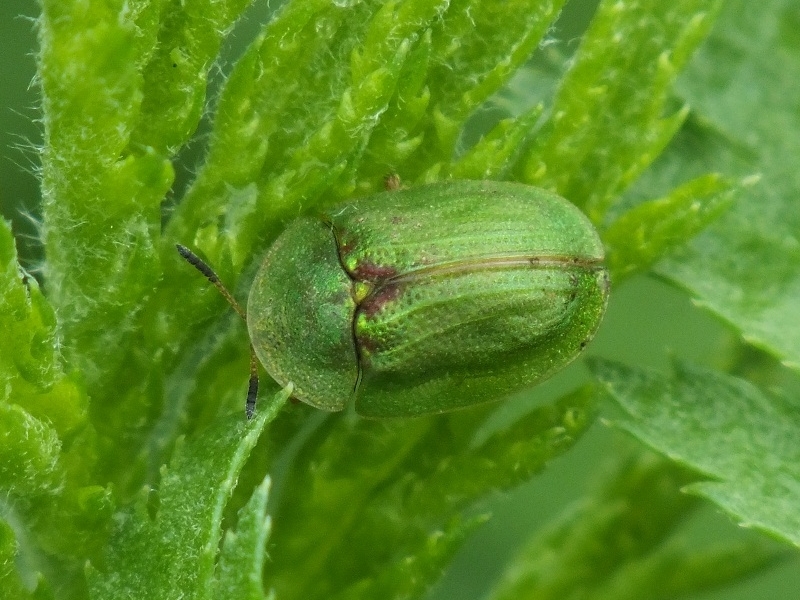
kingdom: Animalia
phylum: Arthropoda
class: Insecta
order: Coleoptera
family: Chrysomelidae
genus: Cassida
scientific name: Cassida stigmatica
